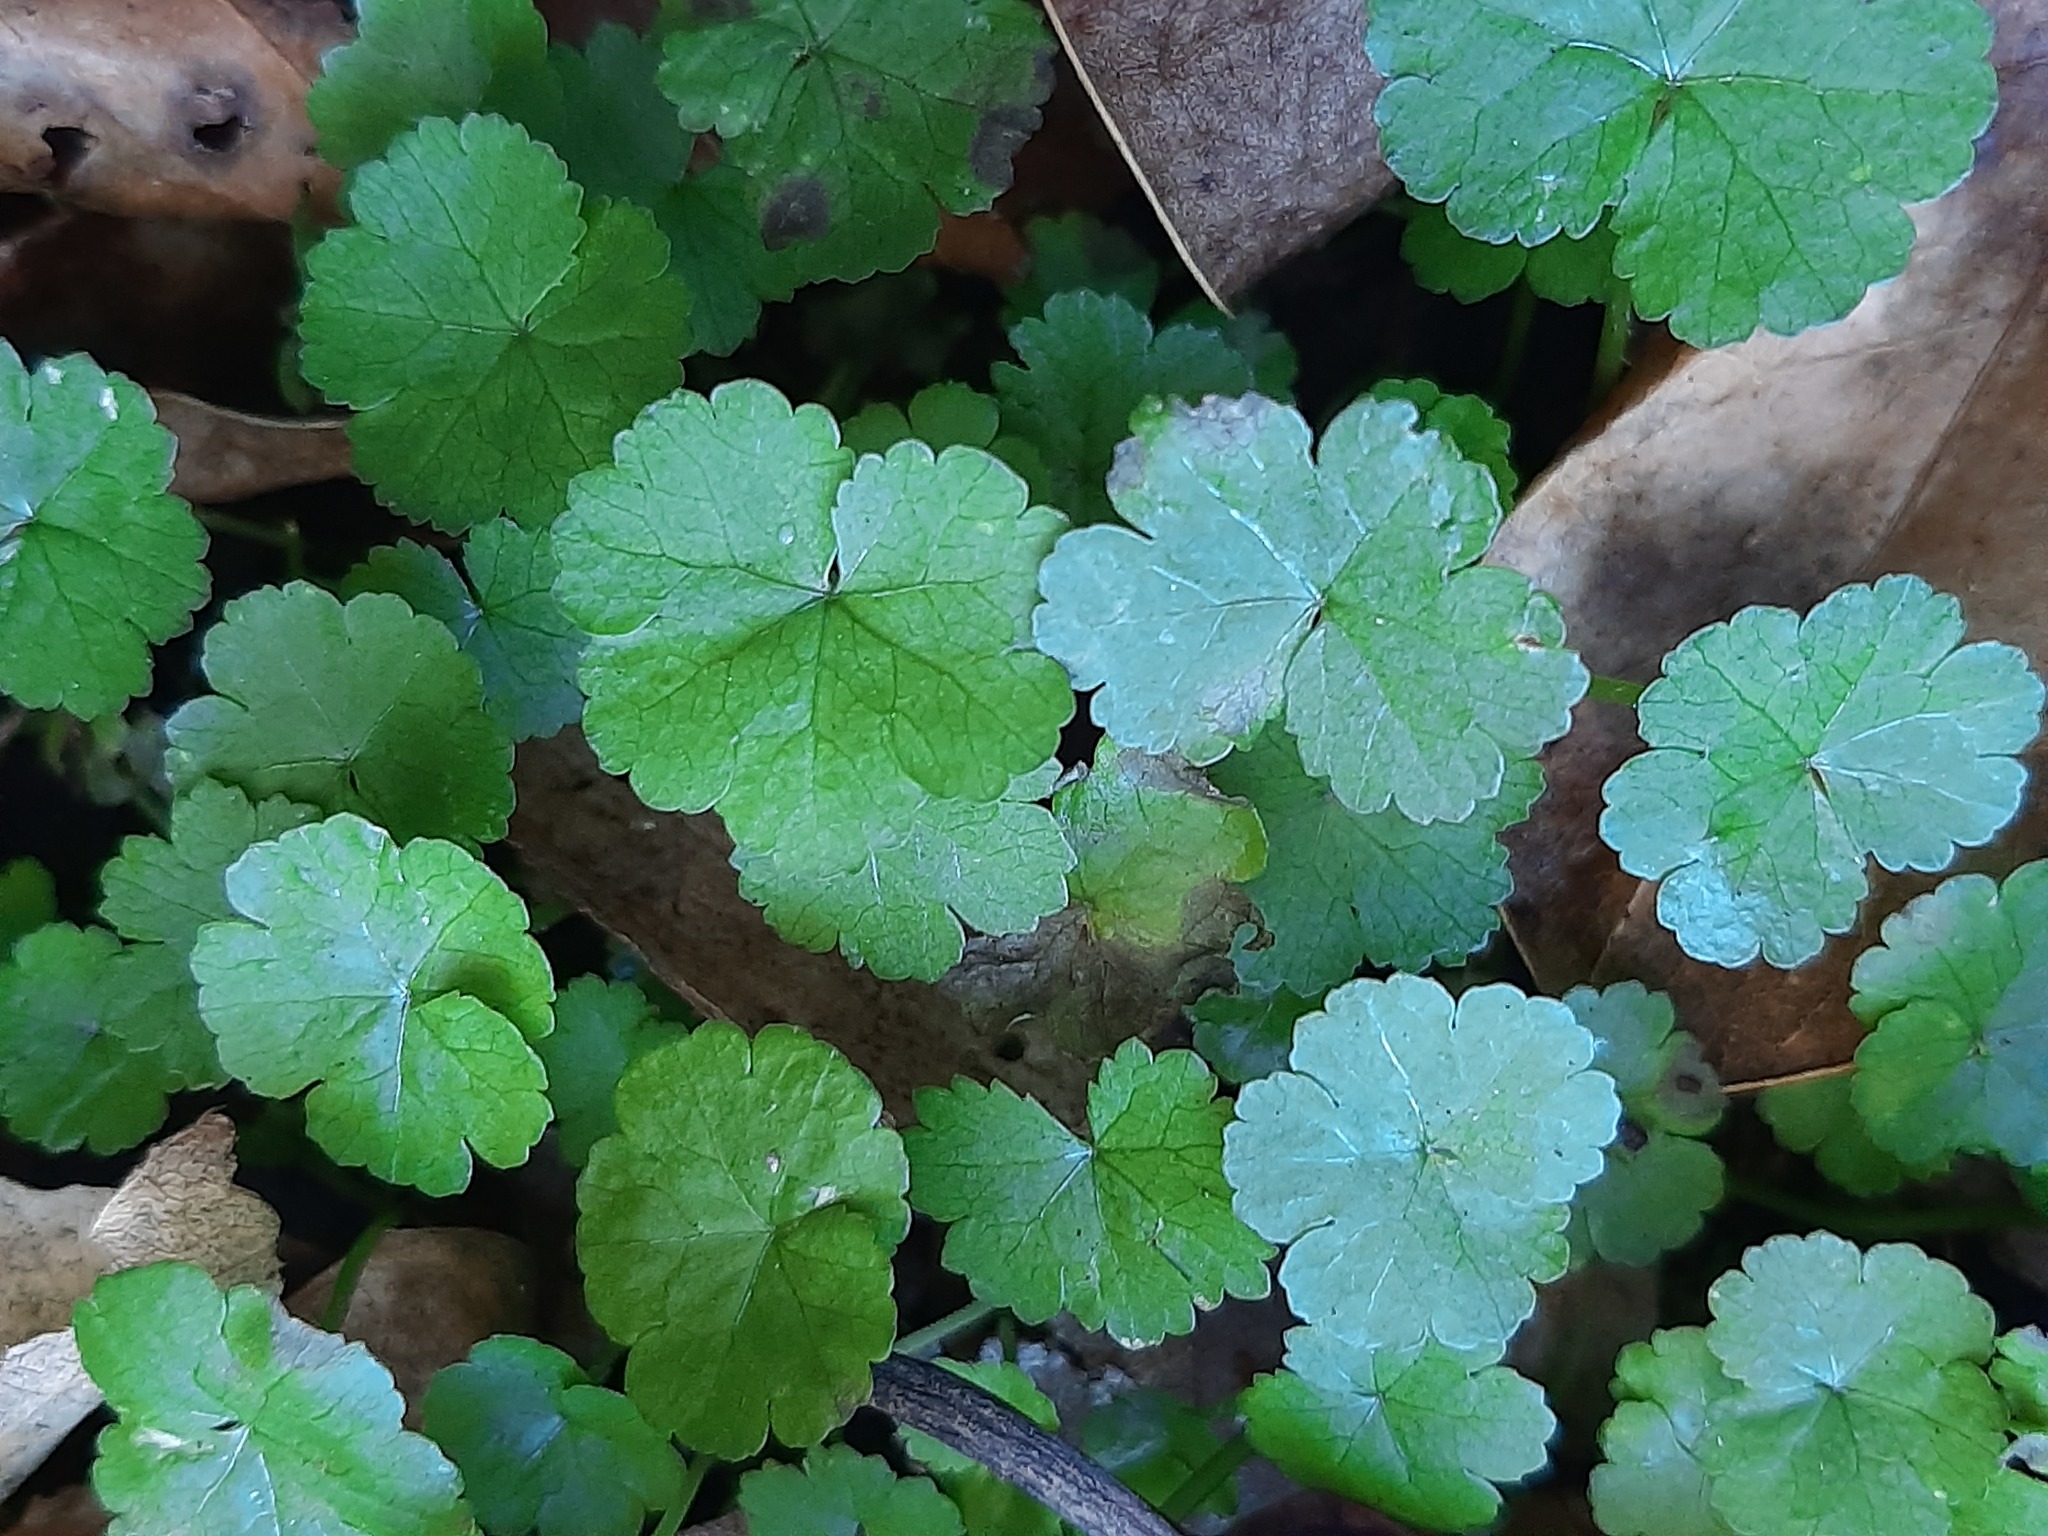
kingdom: Plantae
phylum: Tracheophyta
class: Magnoliopsida
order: Apiales
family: Araliaceae
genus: Hydrocotyle
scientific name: Hydrocotyle heteromeria
